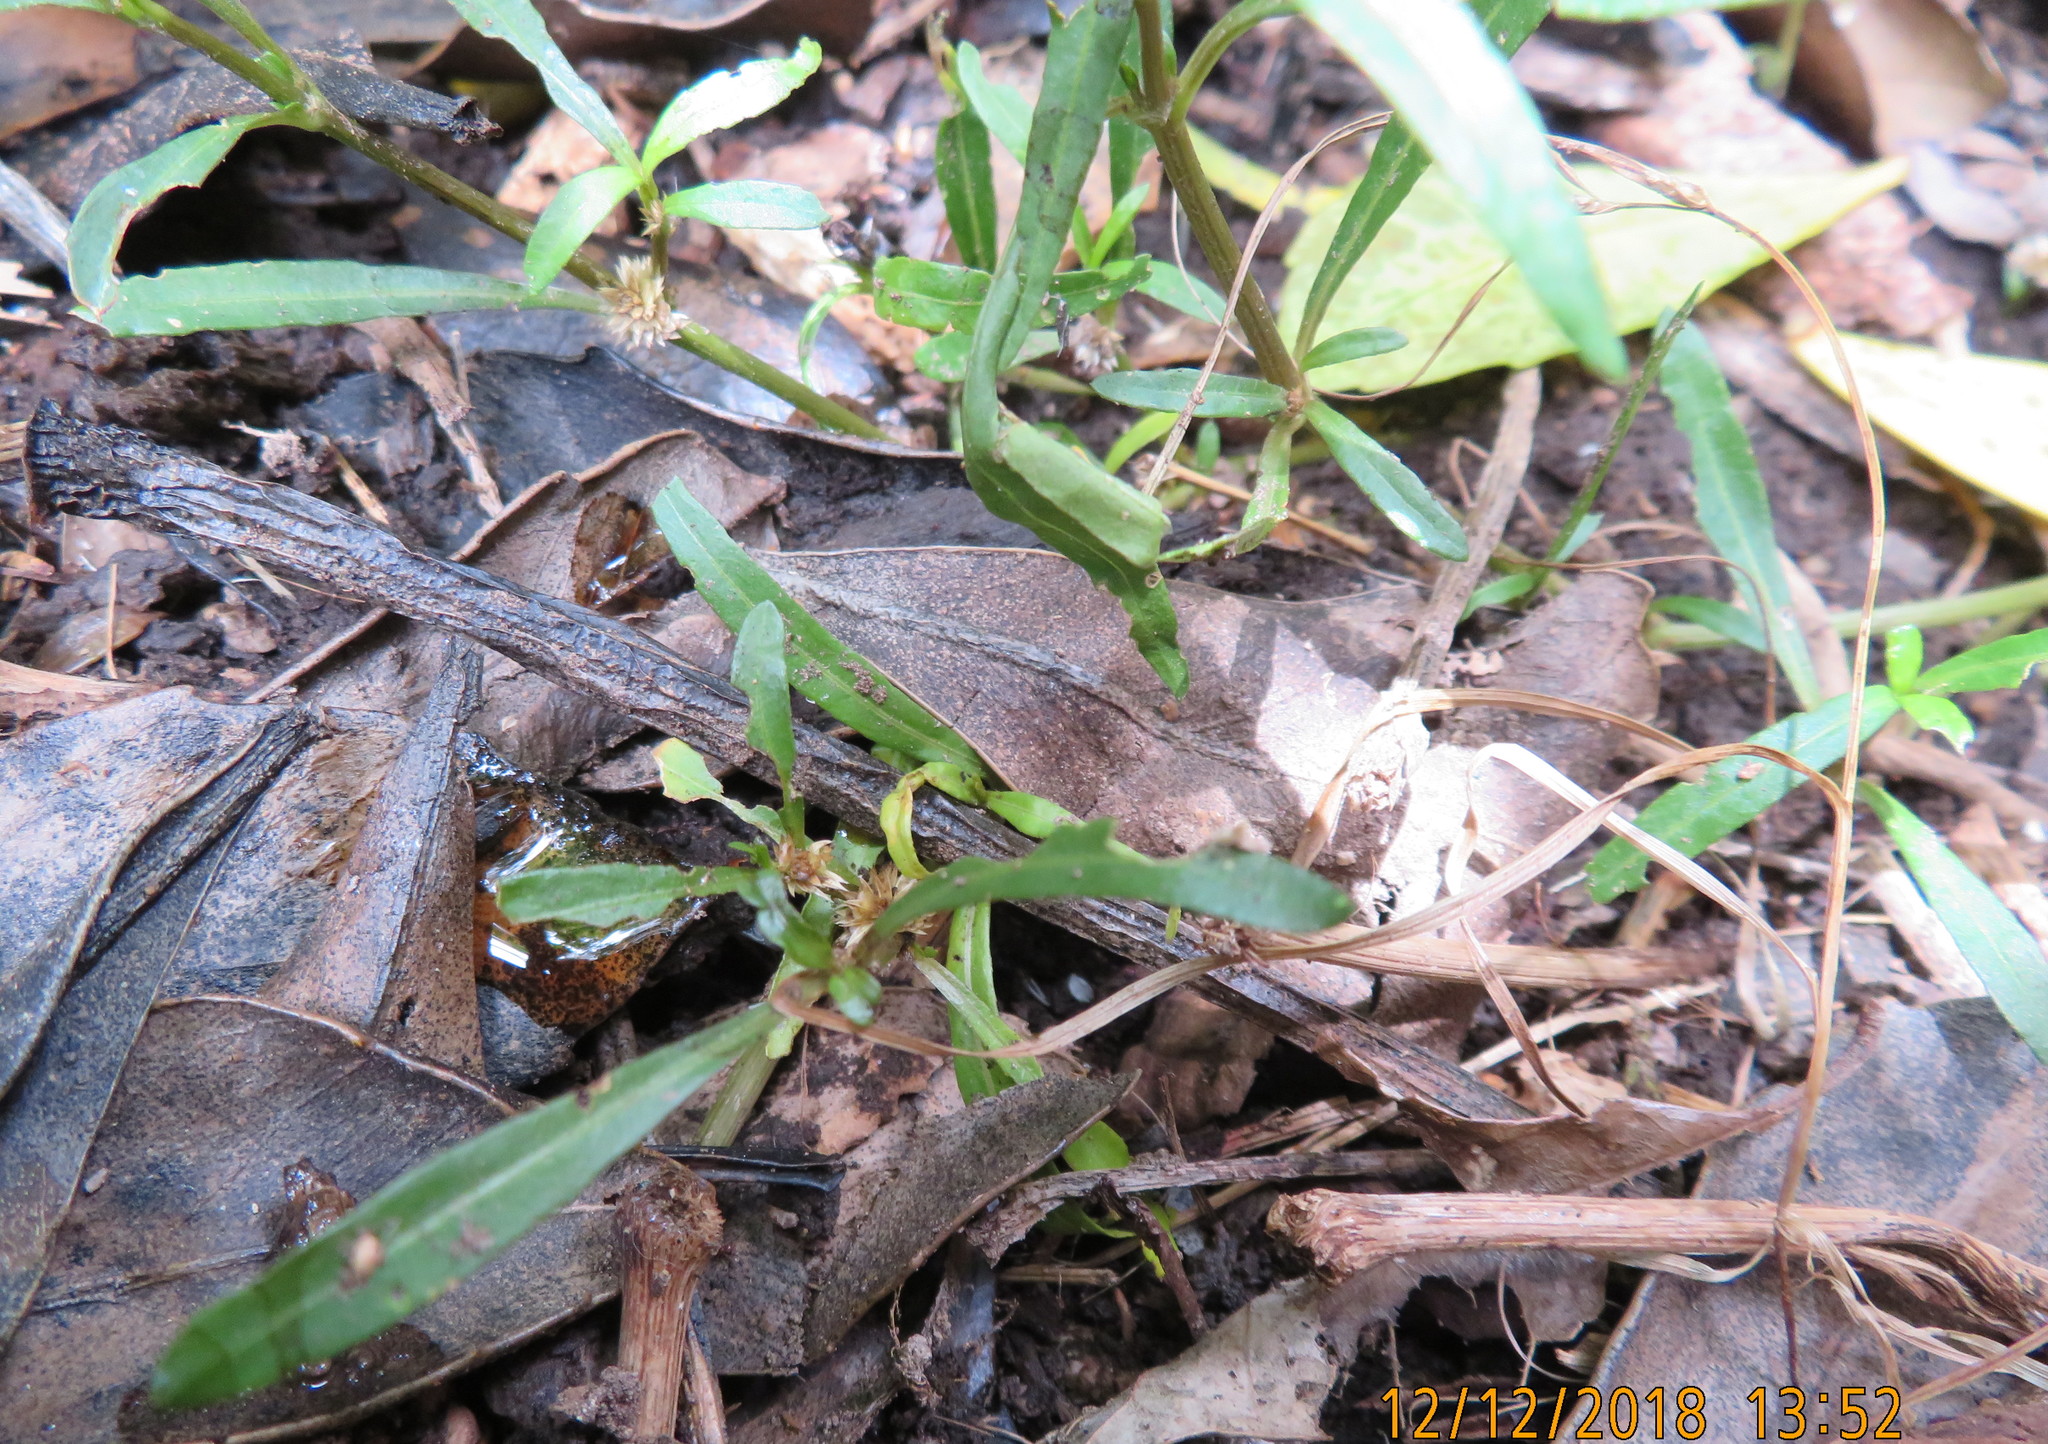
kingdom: Plantae
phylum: Tracheophyta
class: Magnoliopsida
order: Caryophyllales
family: Amaranthaceae
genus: Alternanthera
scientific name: Alternanthera nahui
